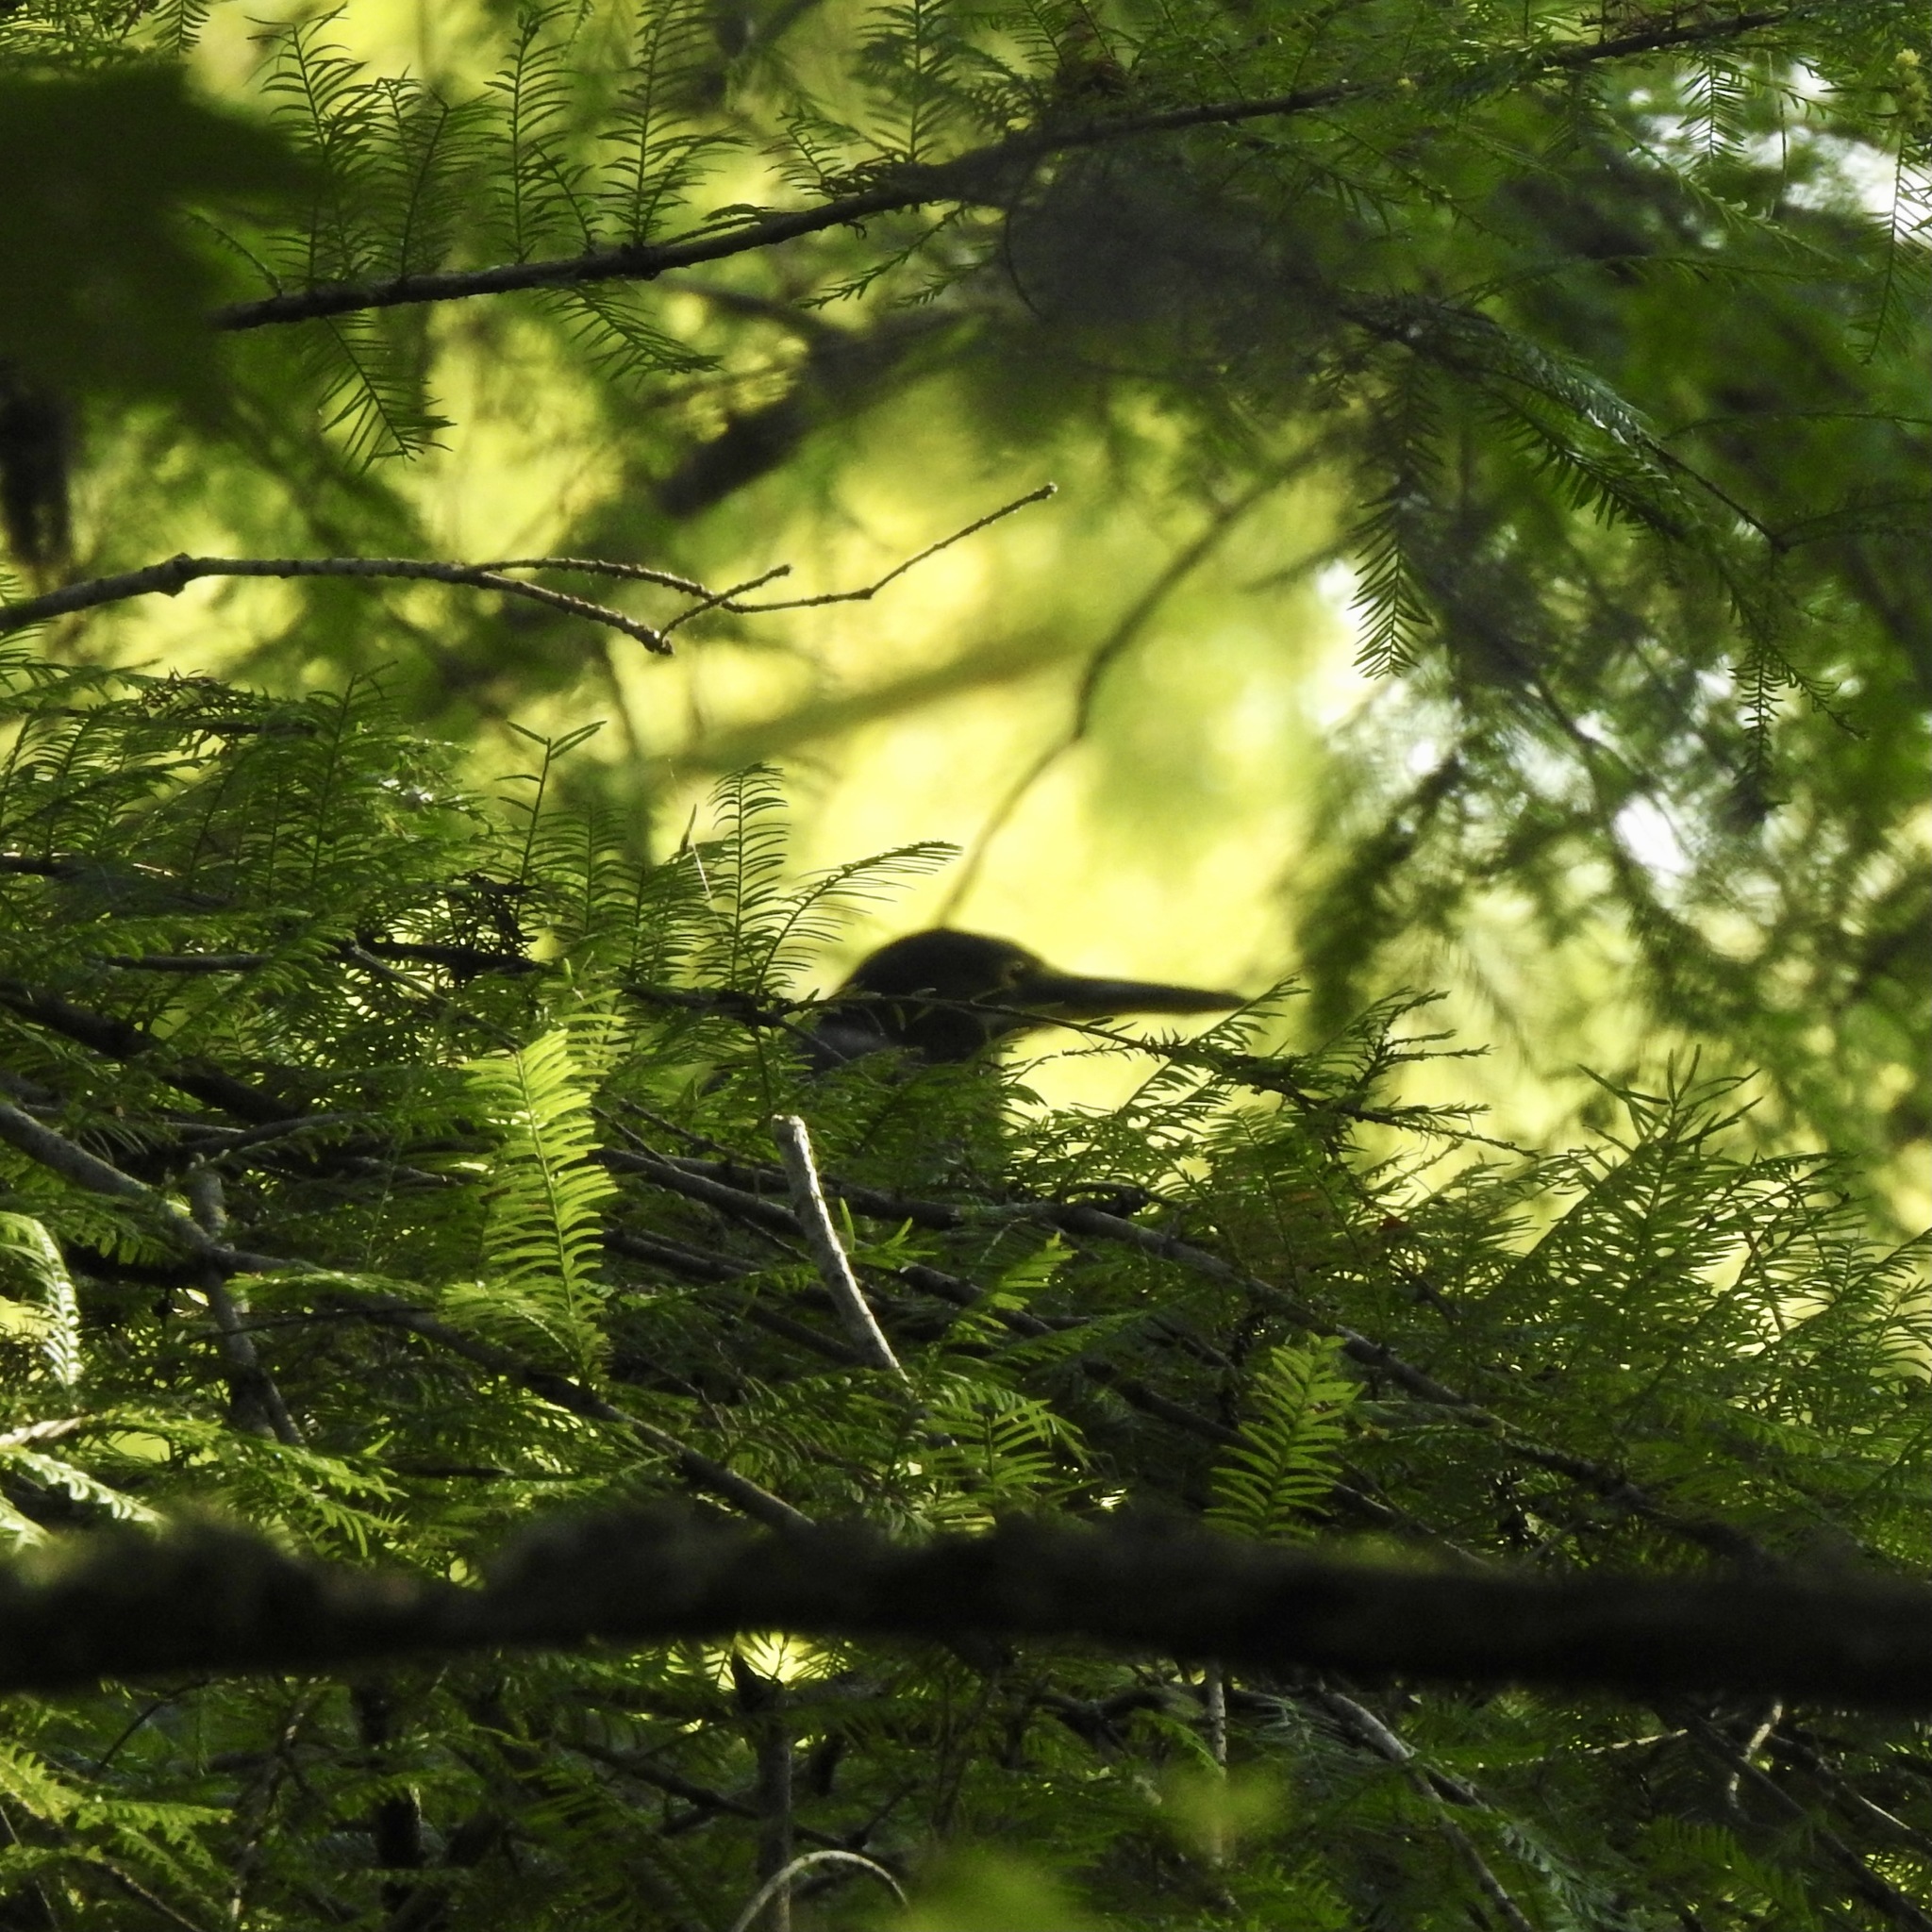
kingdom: Animalia
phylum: Chordata
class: Aves
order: Pelecaniformes
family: Ardeidae
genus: Butorides
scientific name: Butorides virescens
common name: Green heron
